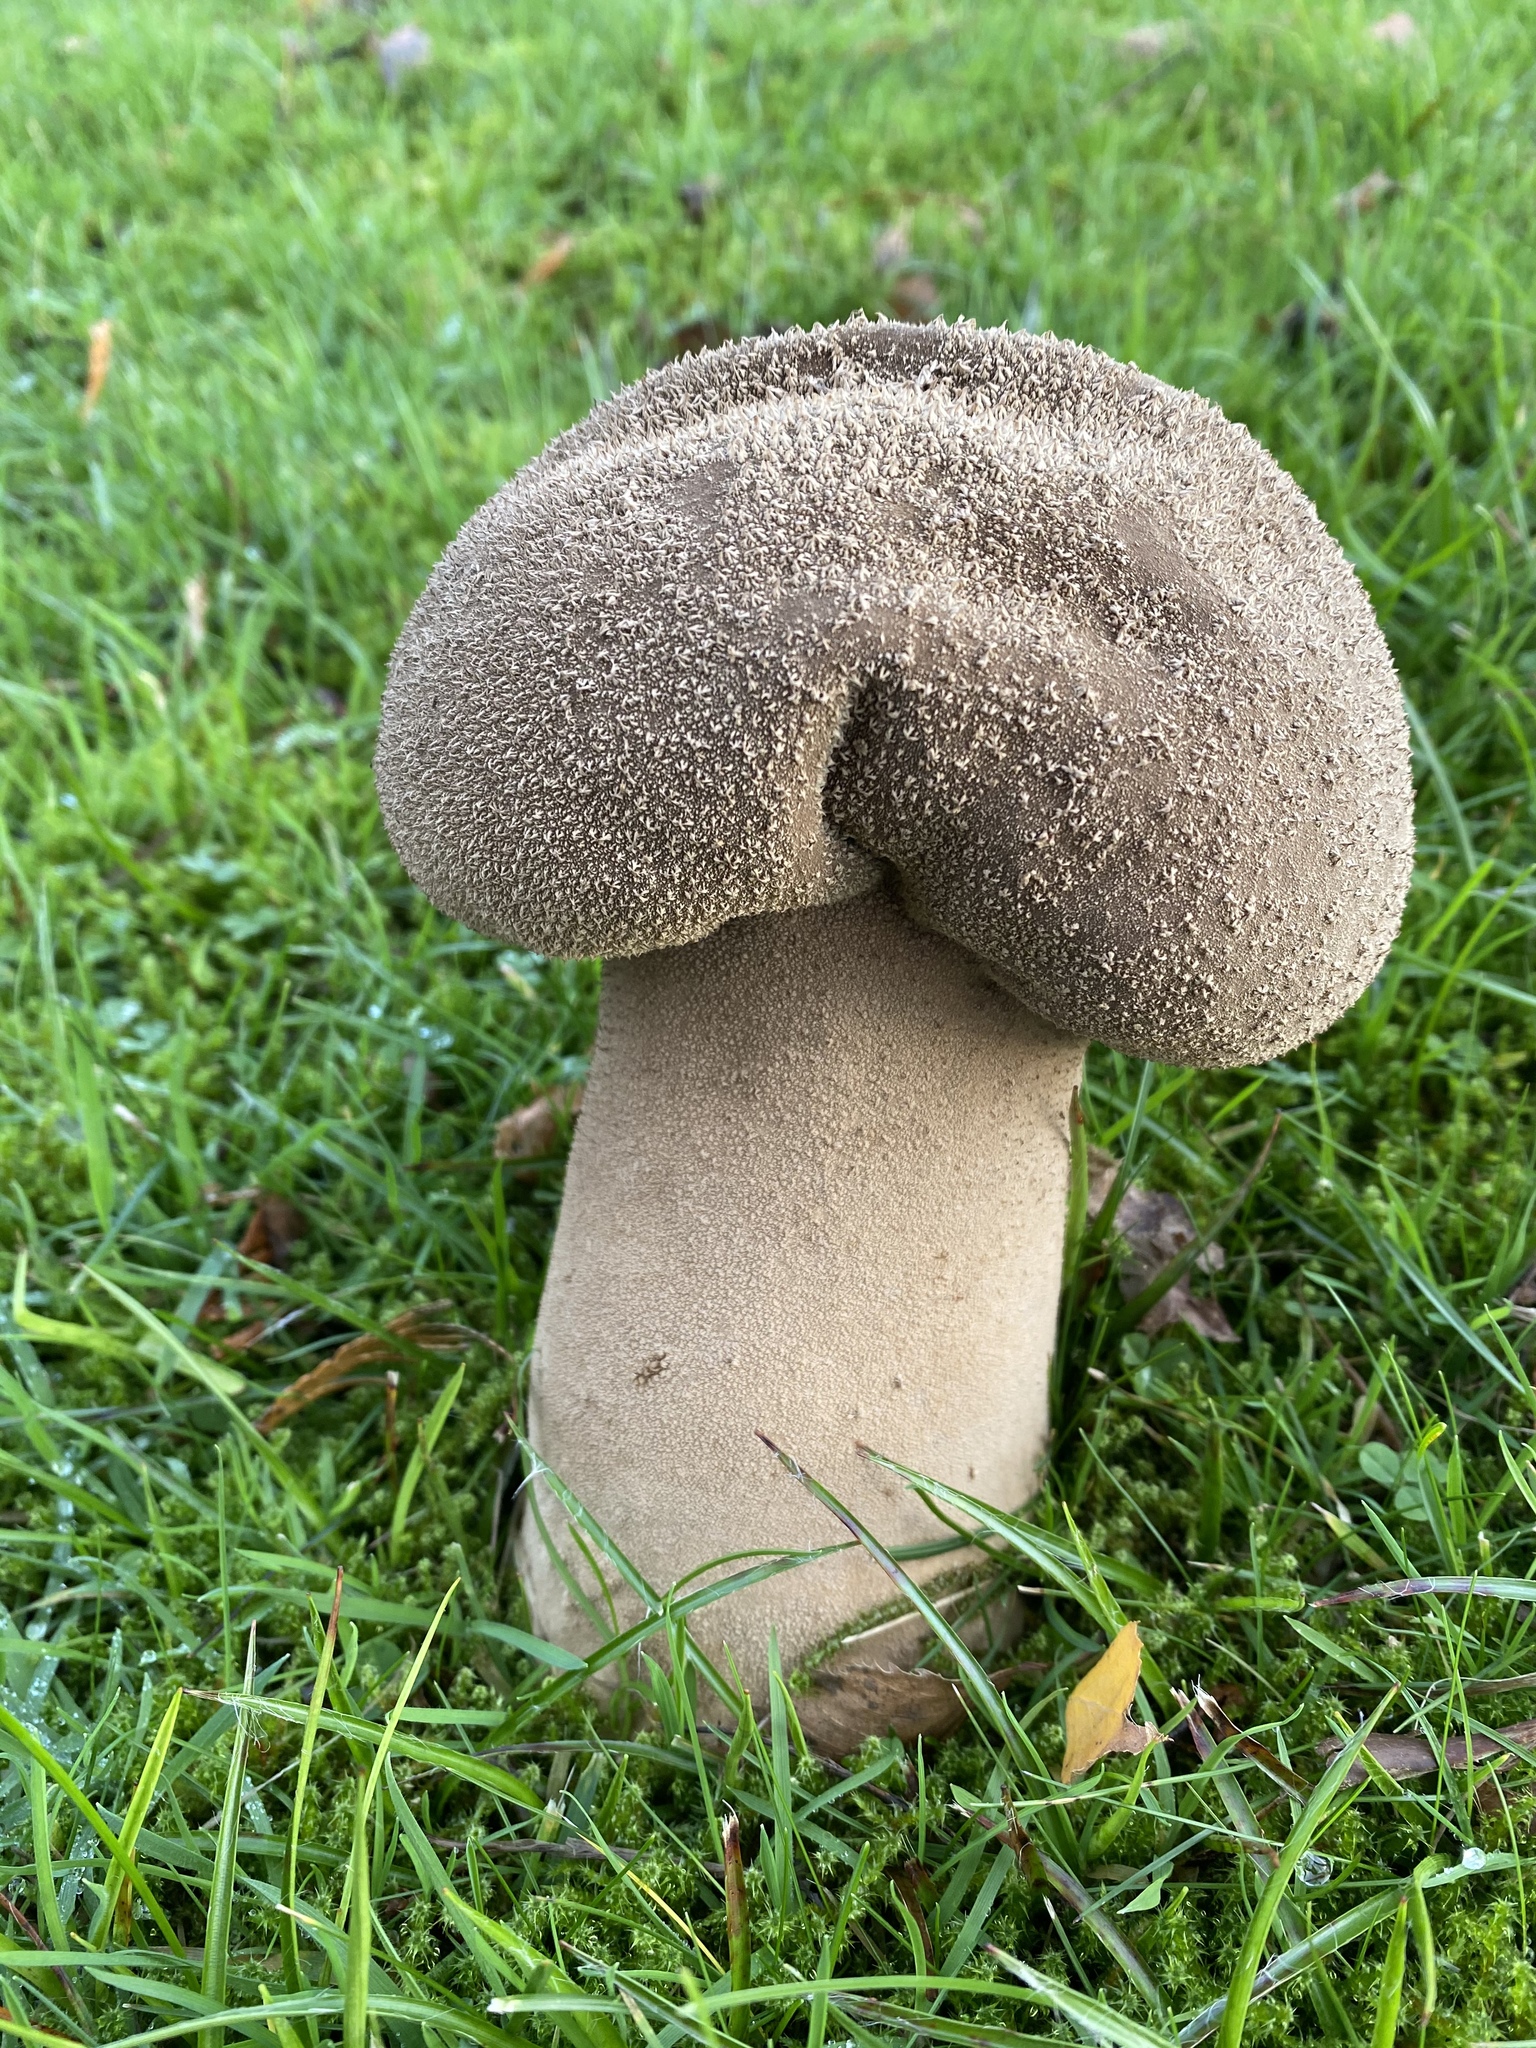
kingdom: Fungi
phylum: Basidiomycota
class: Agaricomycetes
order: Agaricales
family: Lycoperdaceae
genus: Bovistella
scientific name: Bovistella utriformis
